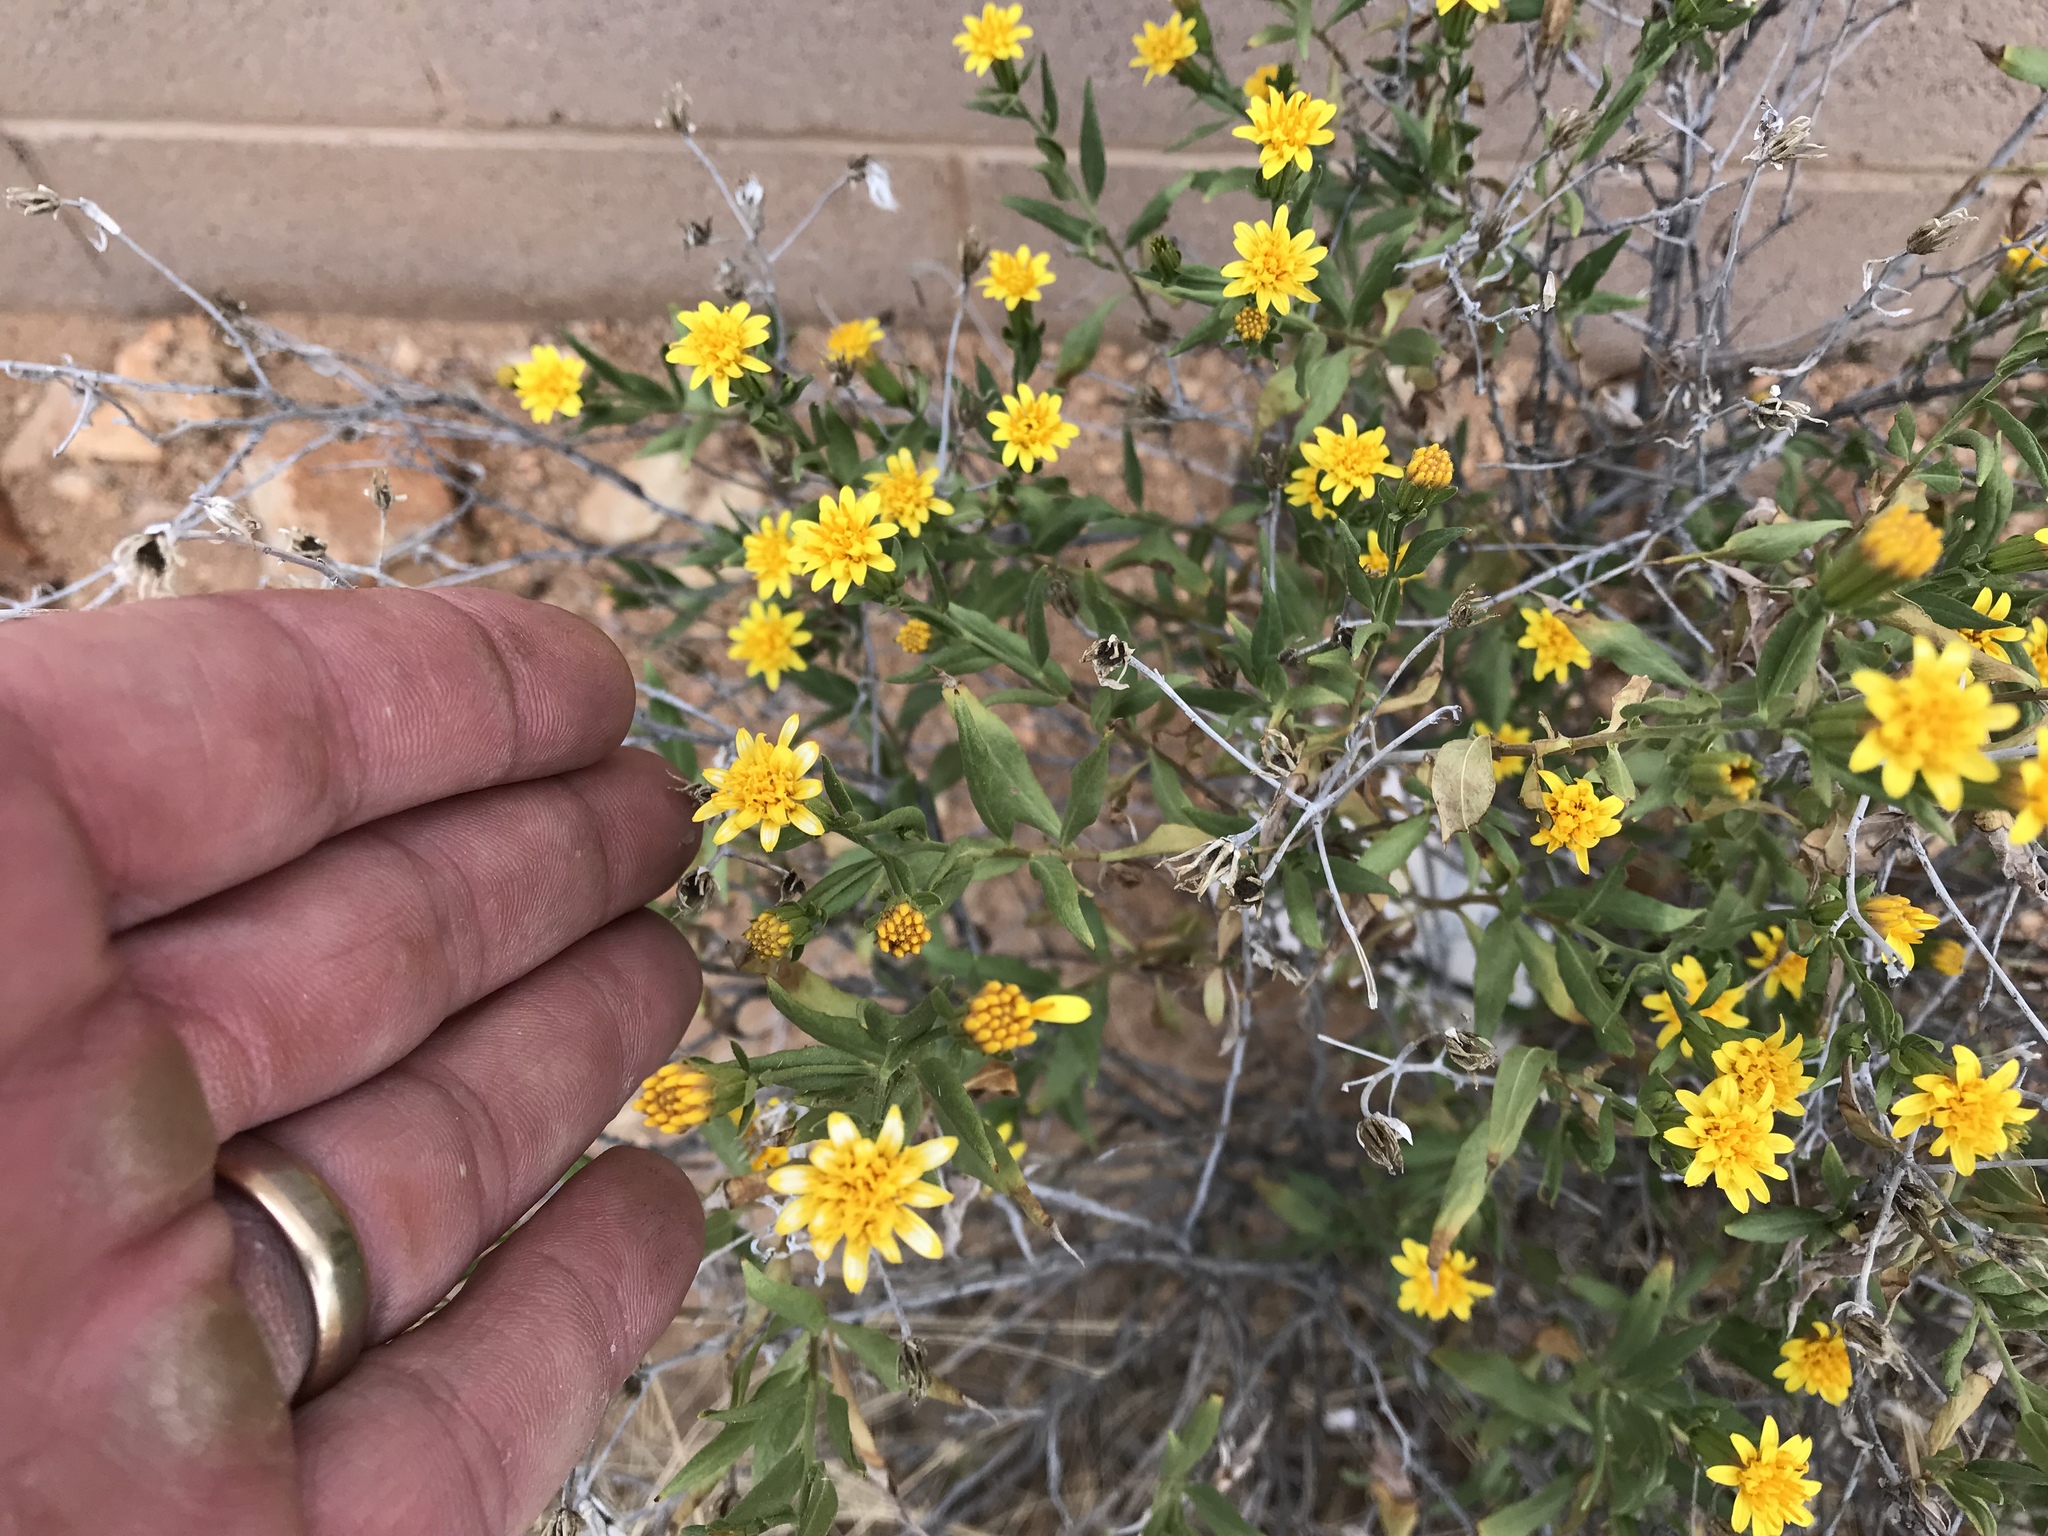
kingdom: Plantae
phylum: Tracheophyta
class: Magnoliopsida
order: Asterales
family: Asteraceae
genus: Trixis
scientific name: Trixis californica
